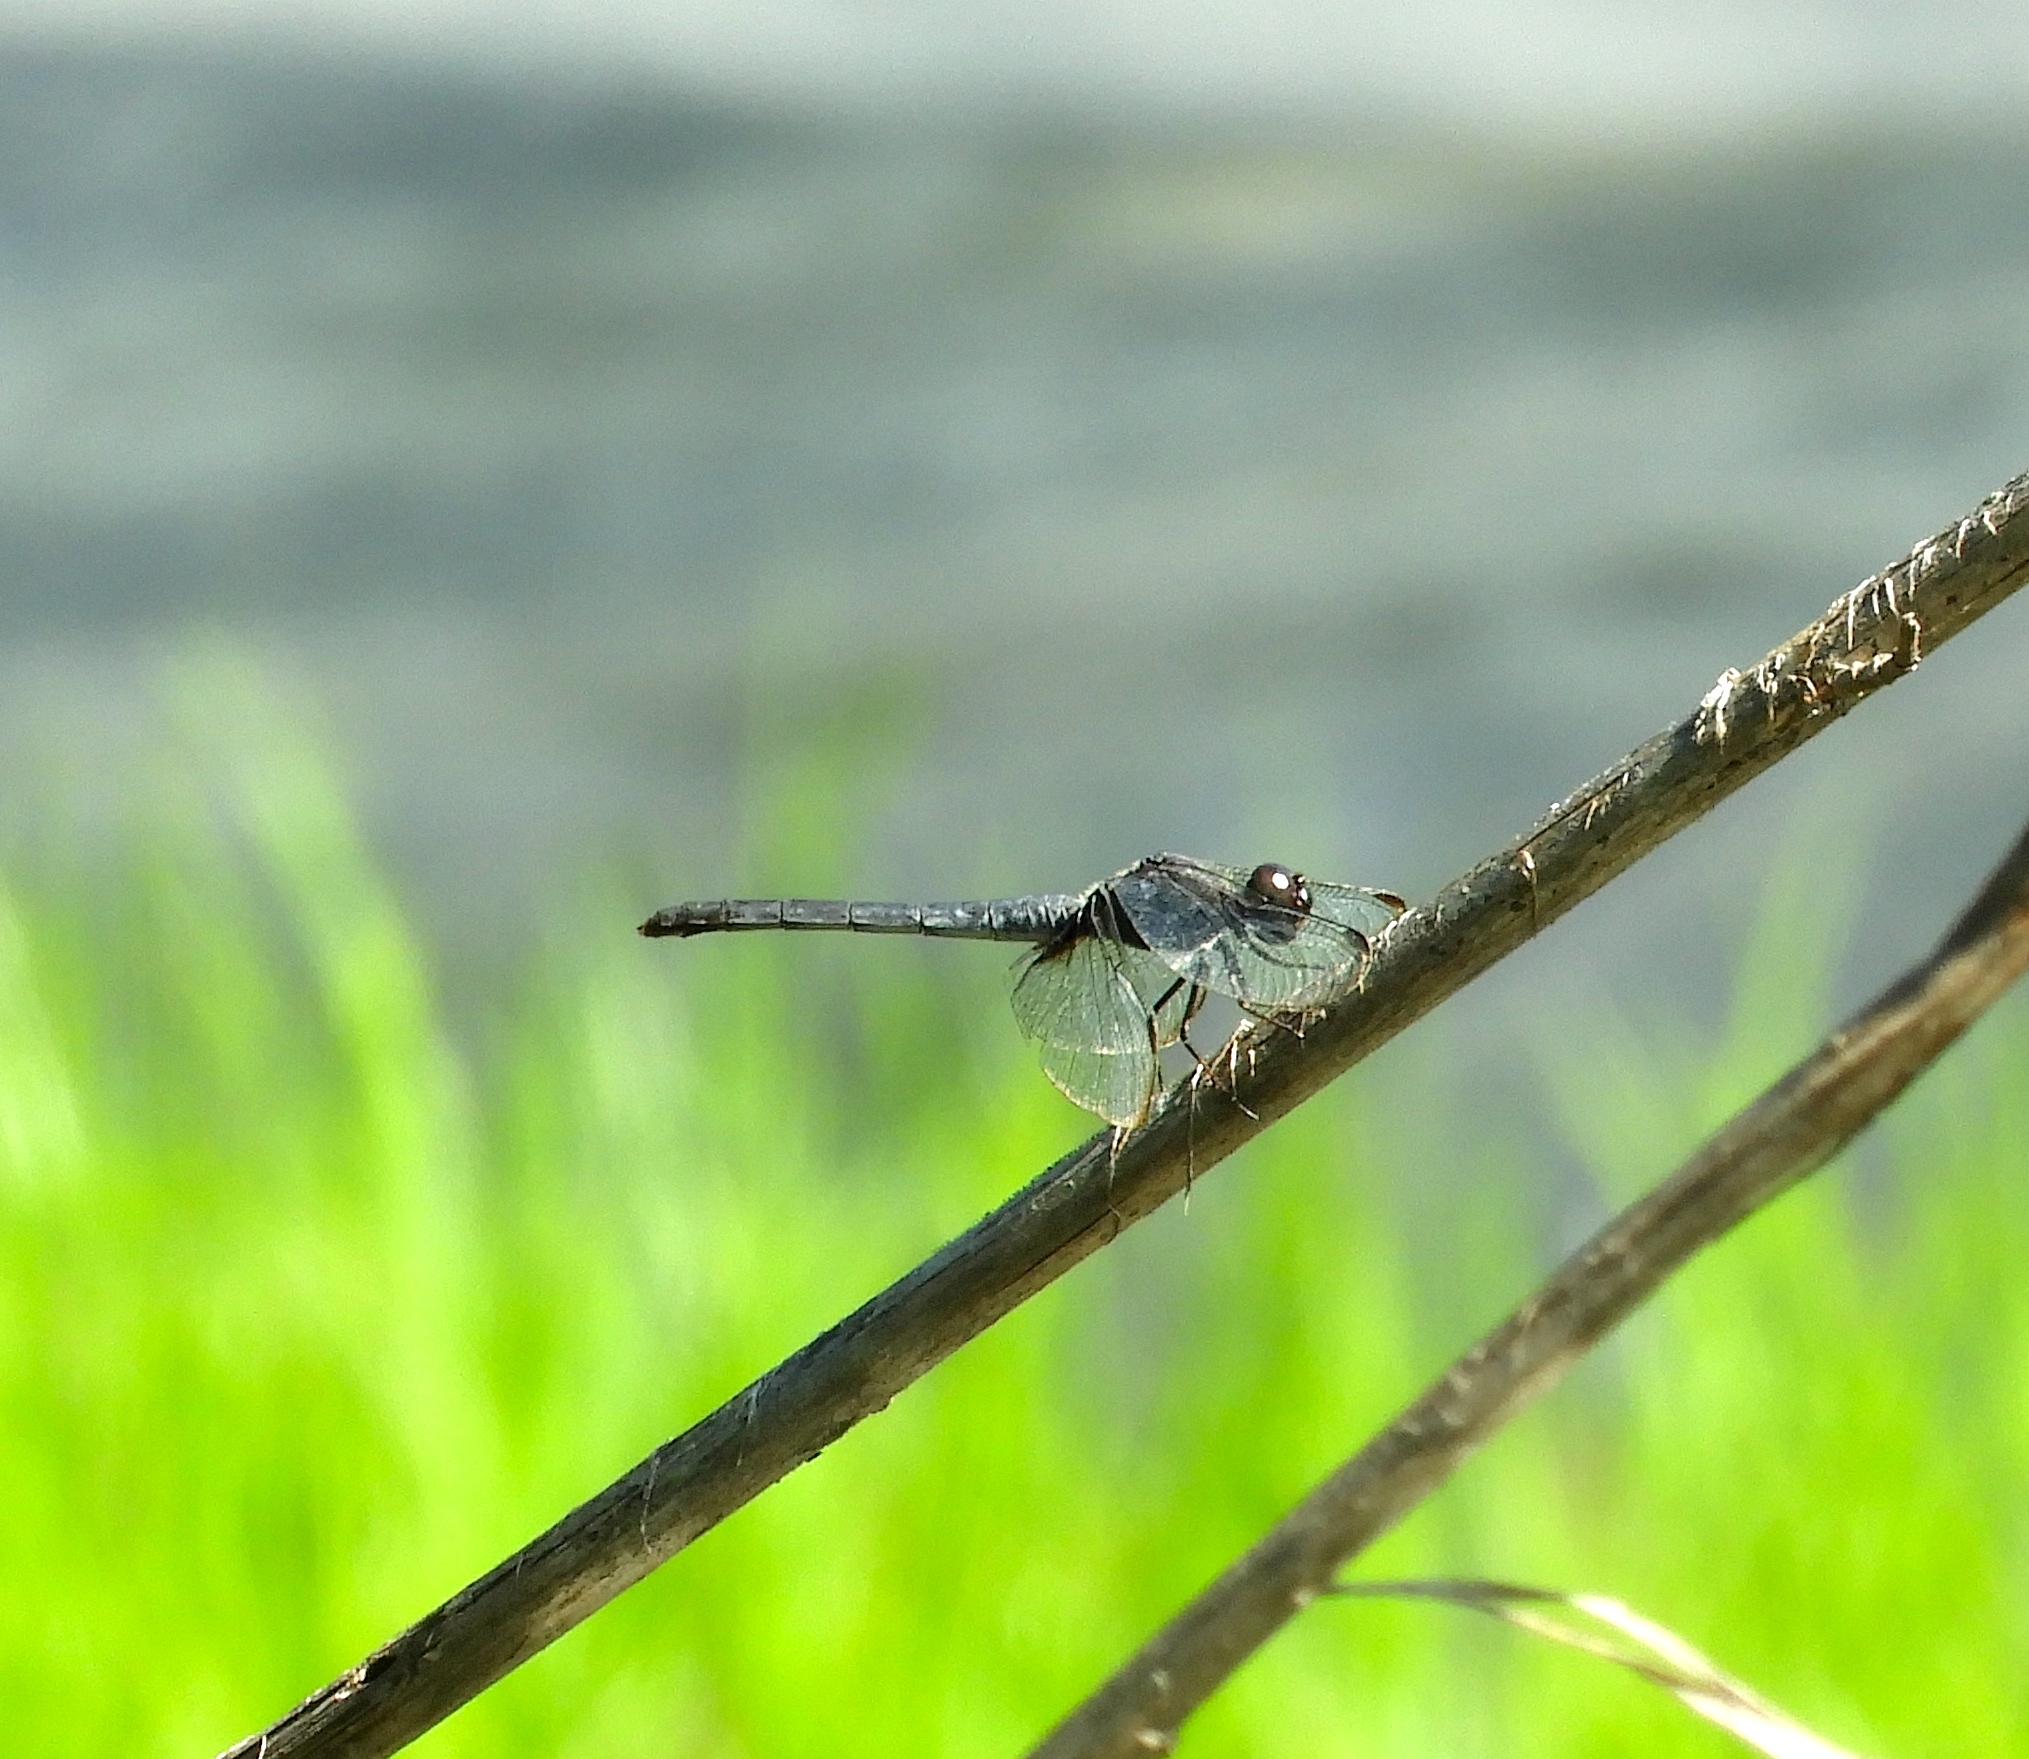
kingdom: Animalia
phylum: Arthropoda
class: Insecta
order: Odonata
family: Libellulidae
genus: Erythrodiplax
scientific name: Erythrodiplax
